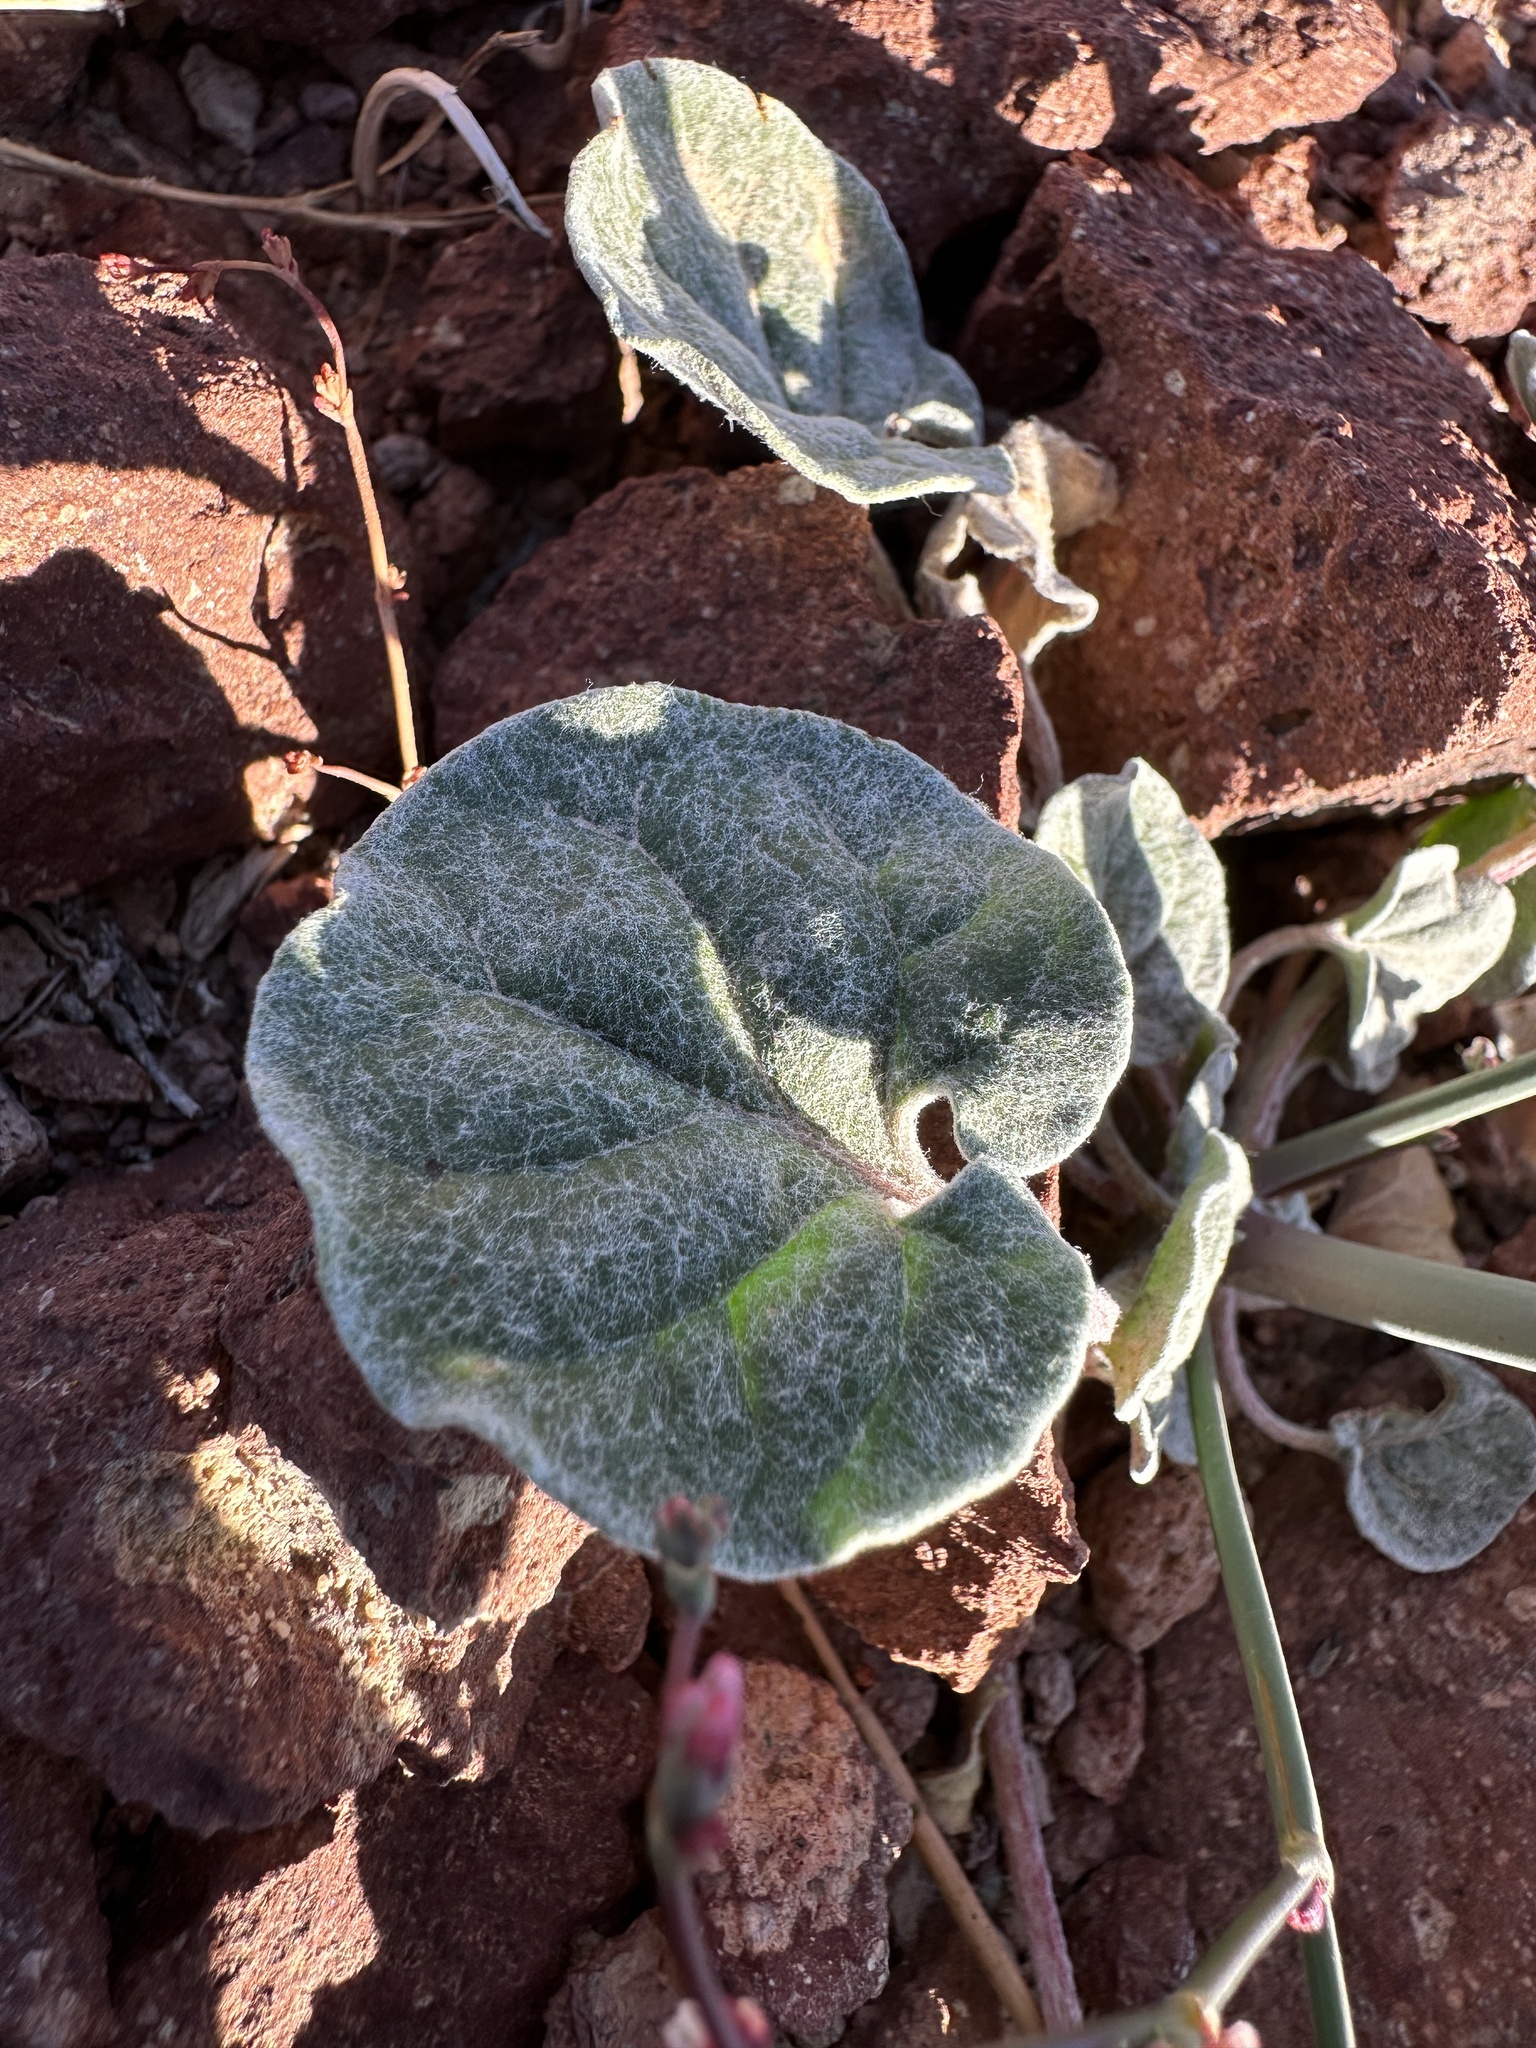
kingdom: Plantae
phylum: Tracheophyta
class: Magnoliopsida
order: Caryophyllales
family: Polygonaceae
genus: Eriogonum
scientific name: Eriogonum deflexum
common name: Skeleton-weed
